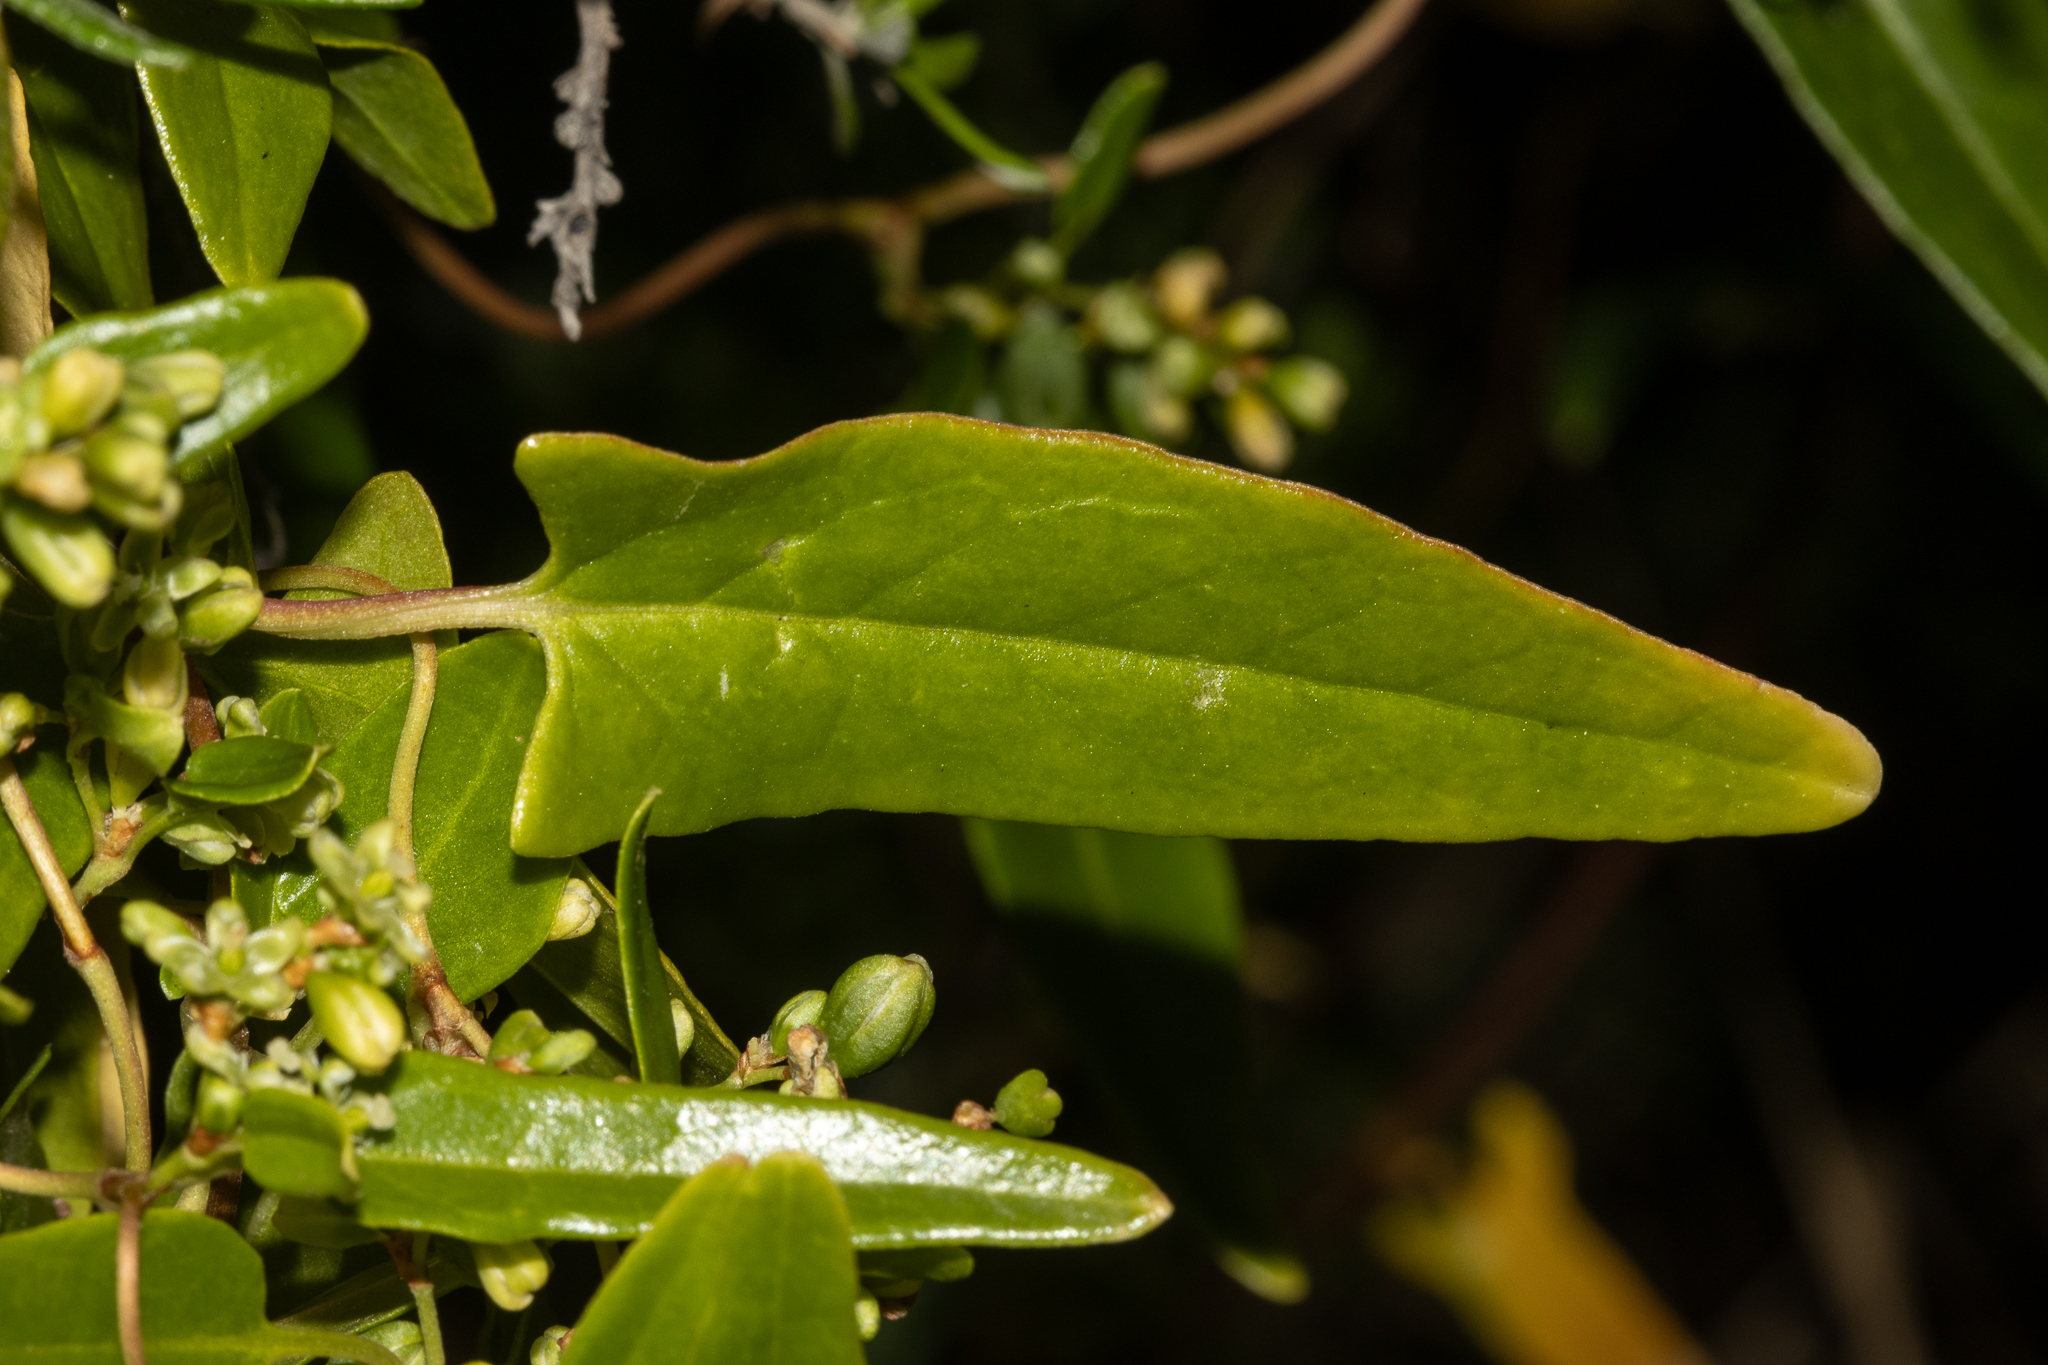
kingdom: Plantae
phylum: Tracheophyta
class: Magnoliopsida
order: Caryophyllales
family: Polygonaceae
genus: Muehlenbeckia
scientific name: Muehlenbeckia gunnii
